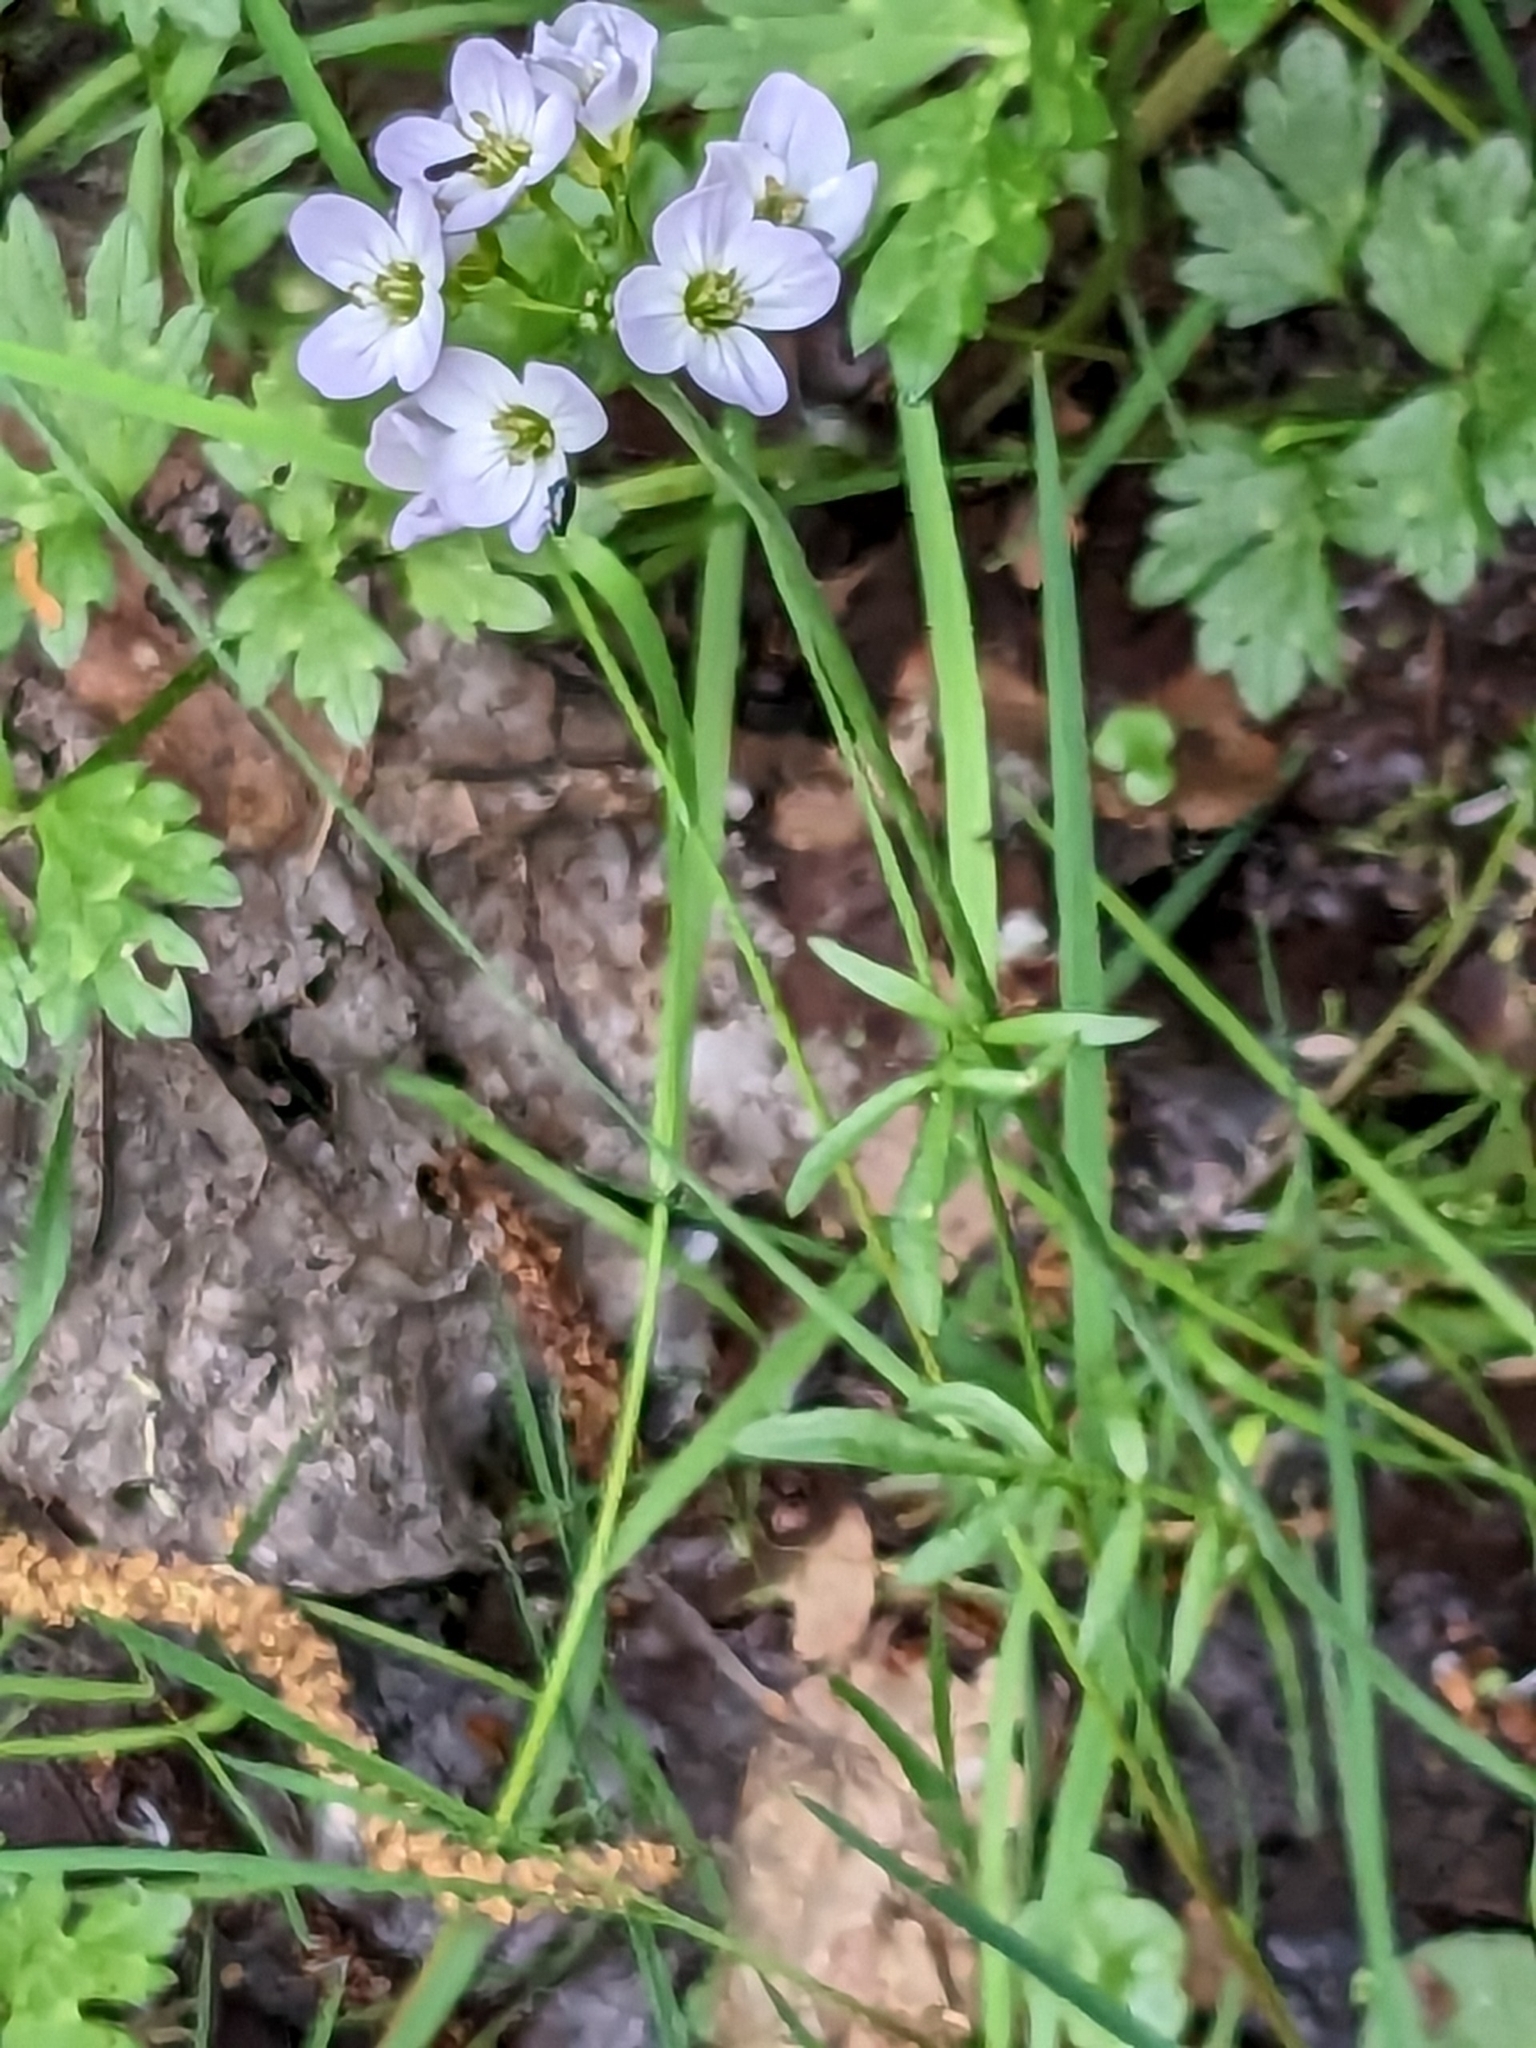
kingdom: Plantae
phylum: Tracheophyta
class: Magnoliopsida
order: Brassicales
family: Brassicaceae
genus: Cardamine
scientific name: Cardamine pratensis
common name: Cuckoo flower
